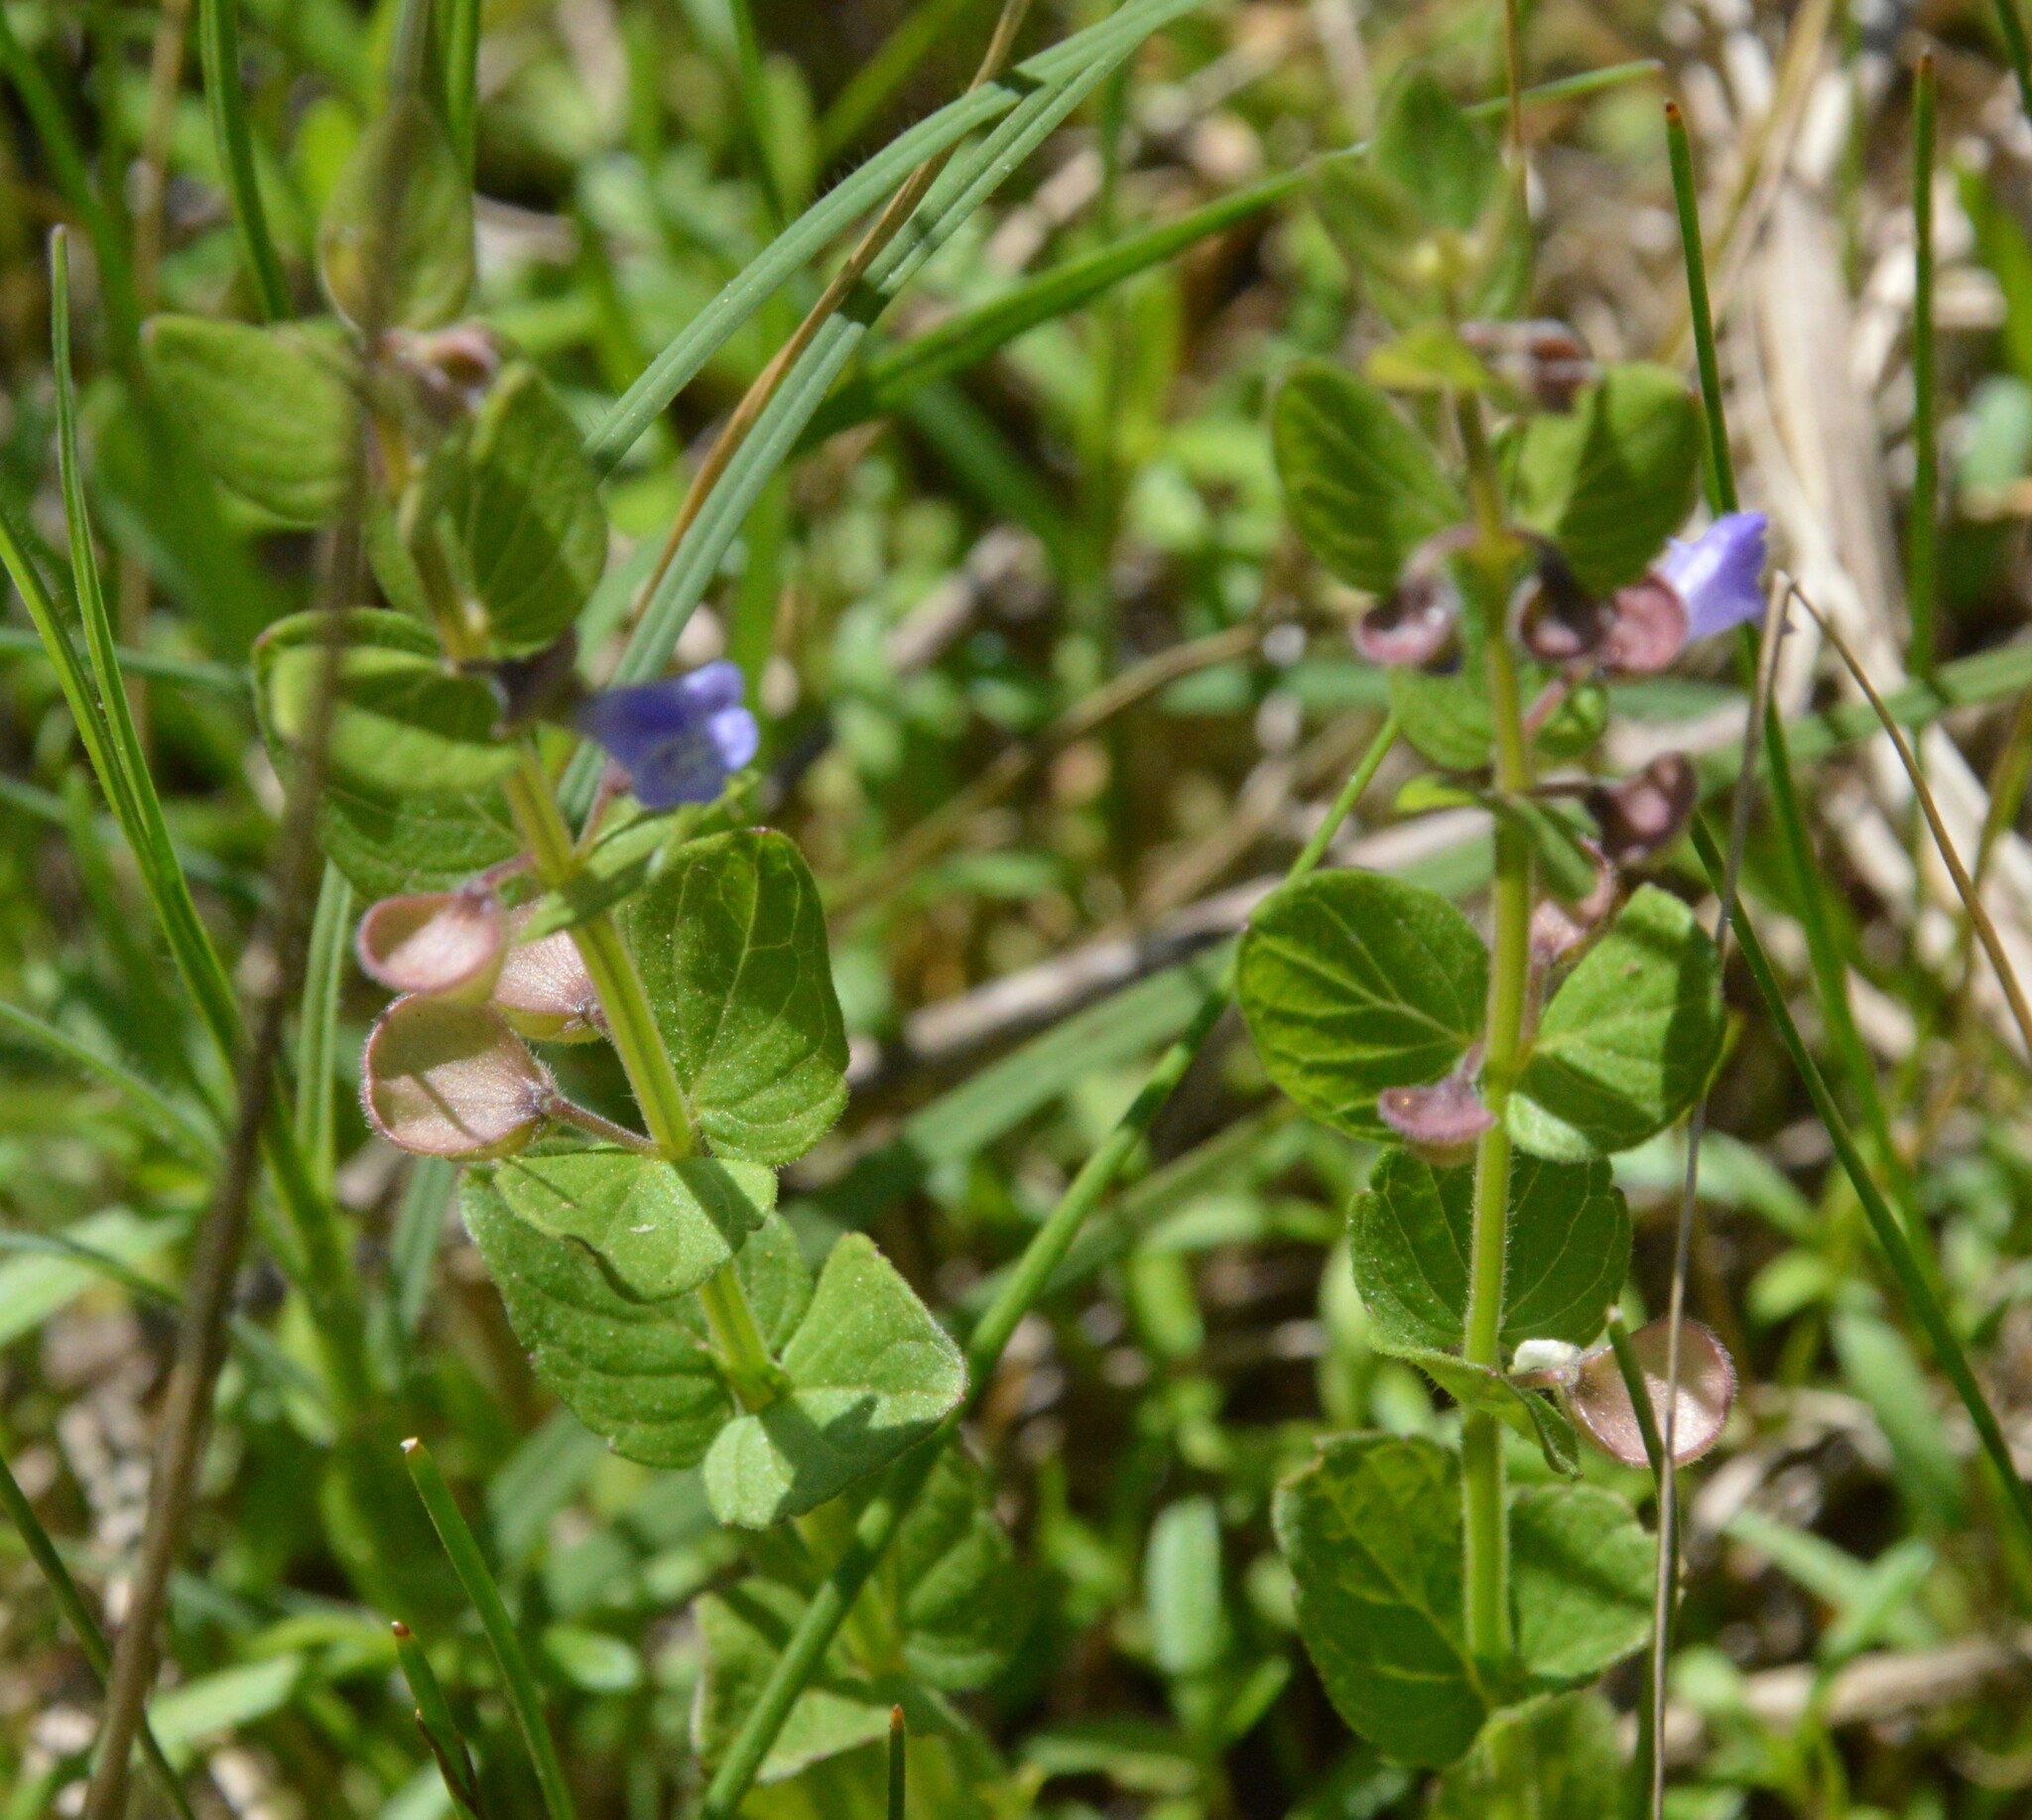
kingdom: Plantae
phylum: Tracheophyta
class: Magnoliopsida
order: Lamiales
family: Lamiaceae
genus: Scutellaria
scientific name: Scutellaria parvula
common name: Little scullcap
